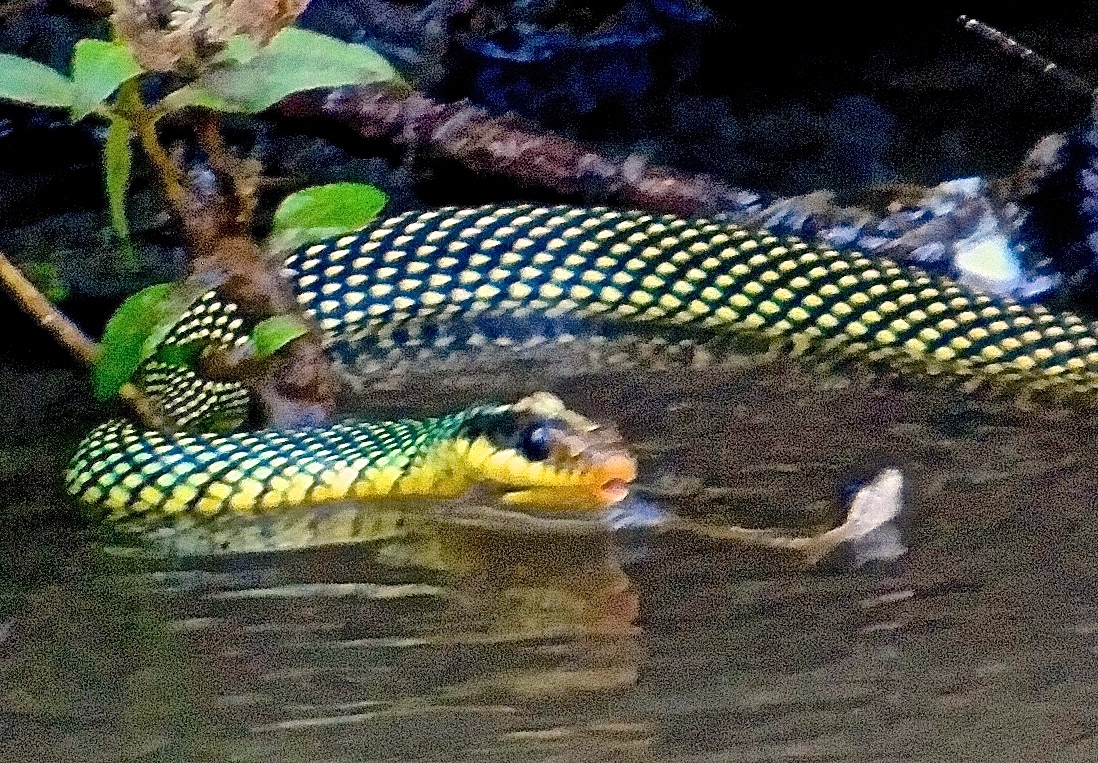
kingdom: Animalia
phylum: Chordata
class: Squamata
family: Colubridae
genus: Drymobius
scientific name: Drymobius margaritiferus
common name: Central american speckled racer
